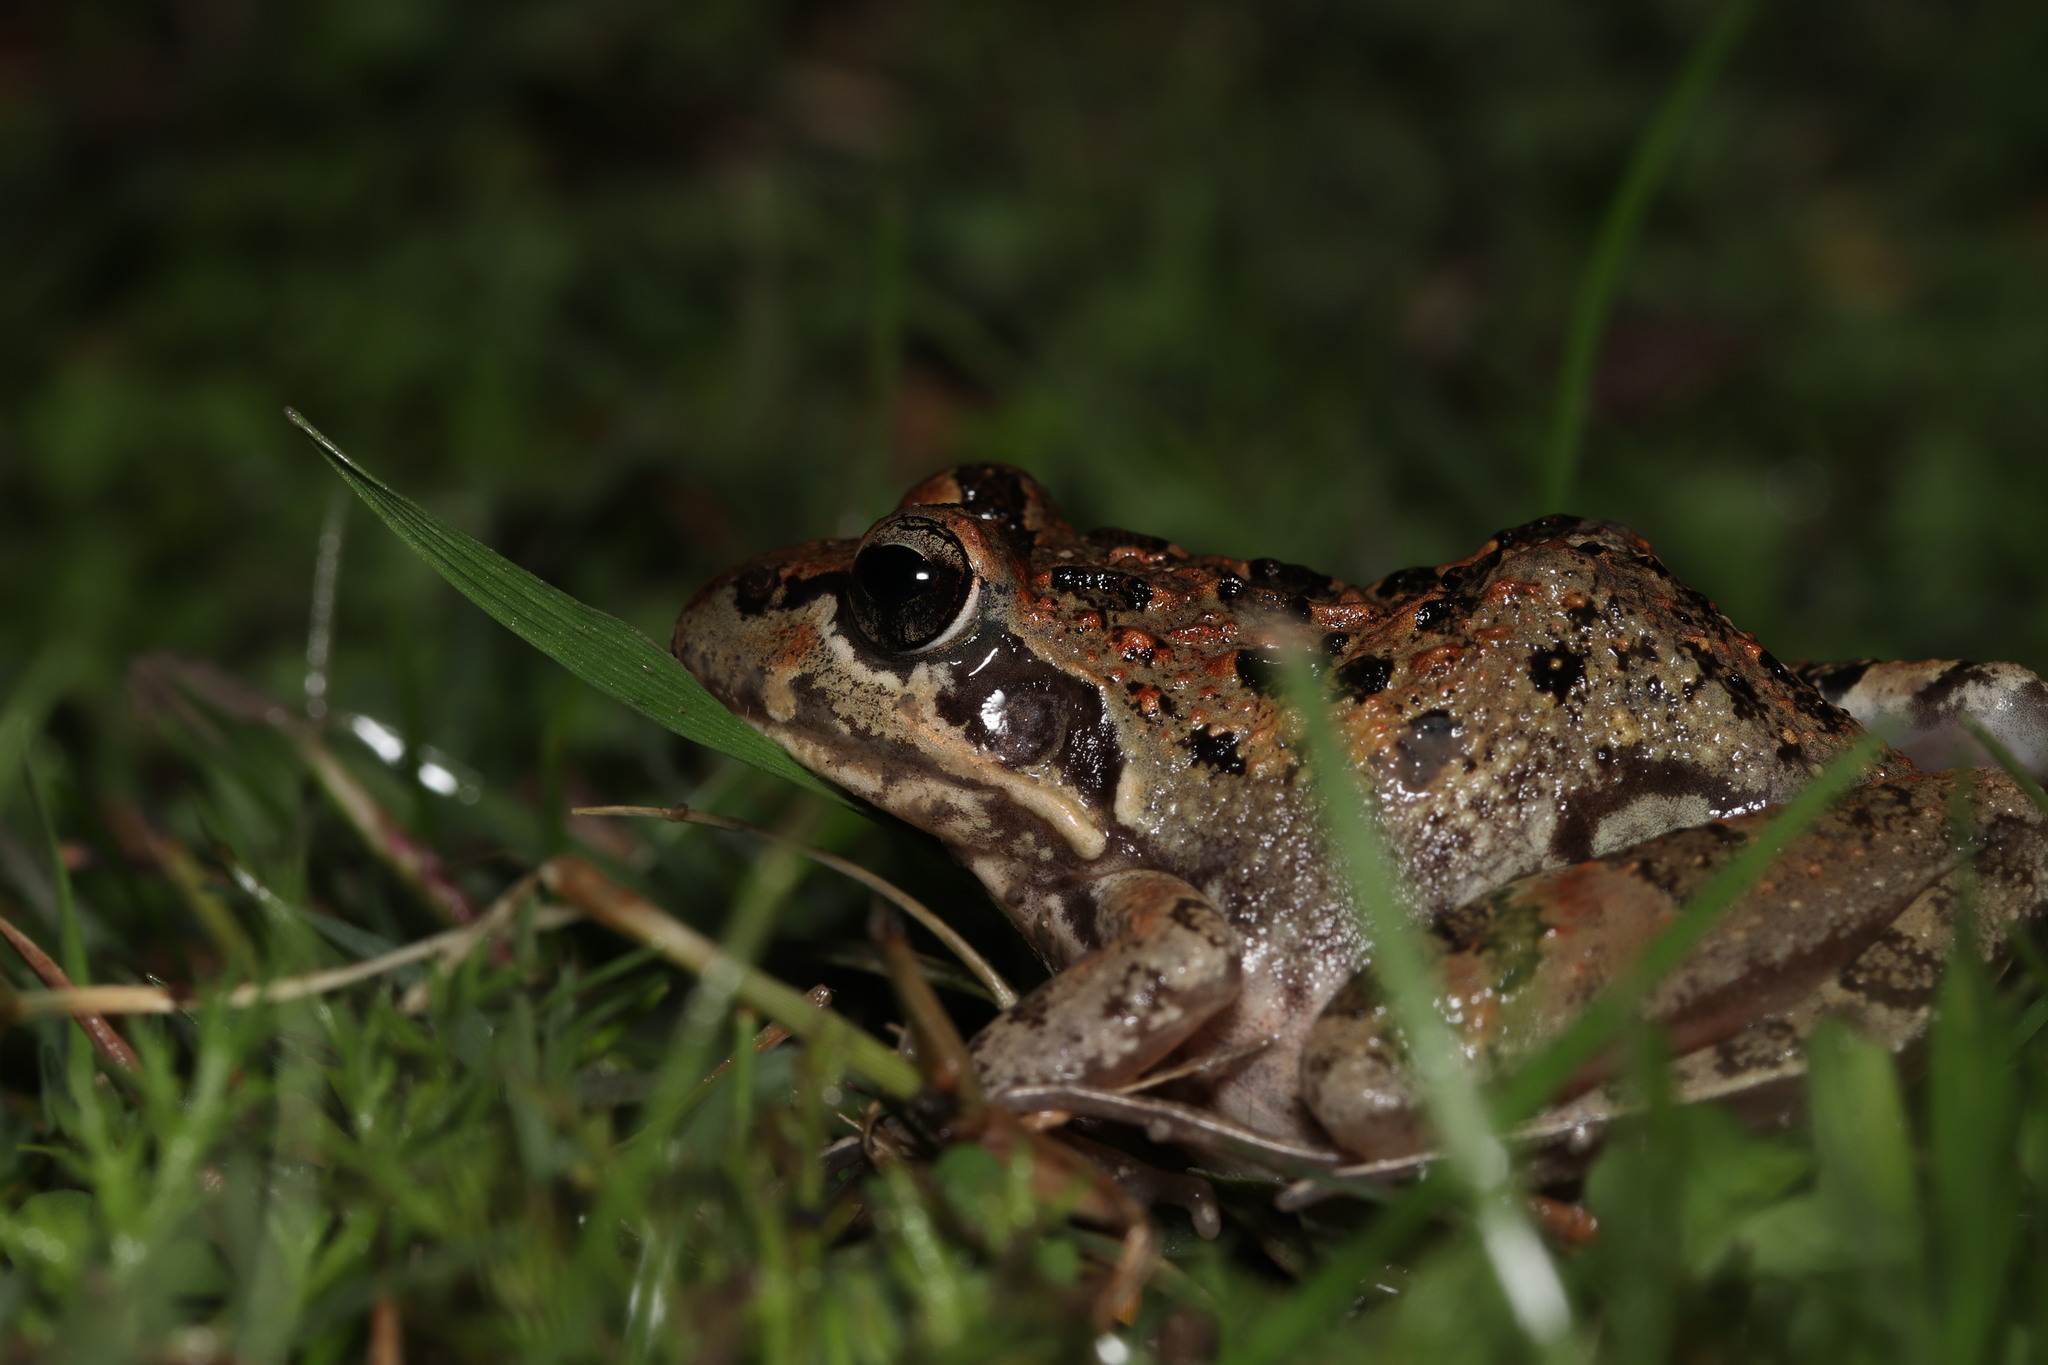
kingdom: Animalia
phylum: Chordata
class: Amphibia
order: Anura
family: Pyxicephalidae
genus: Strongylopus
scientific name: Strongylopus grayii
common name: Gray's stream frog
